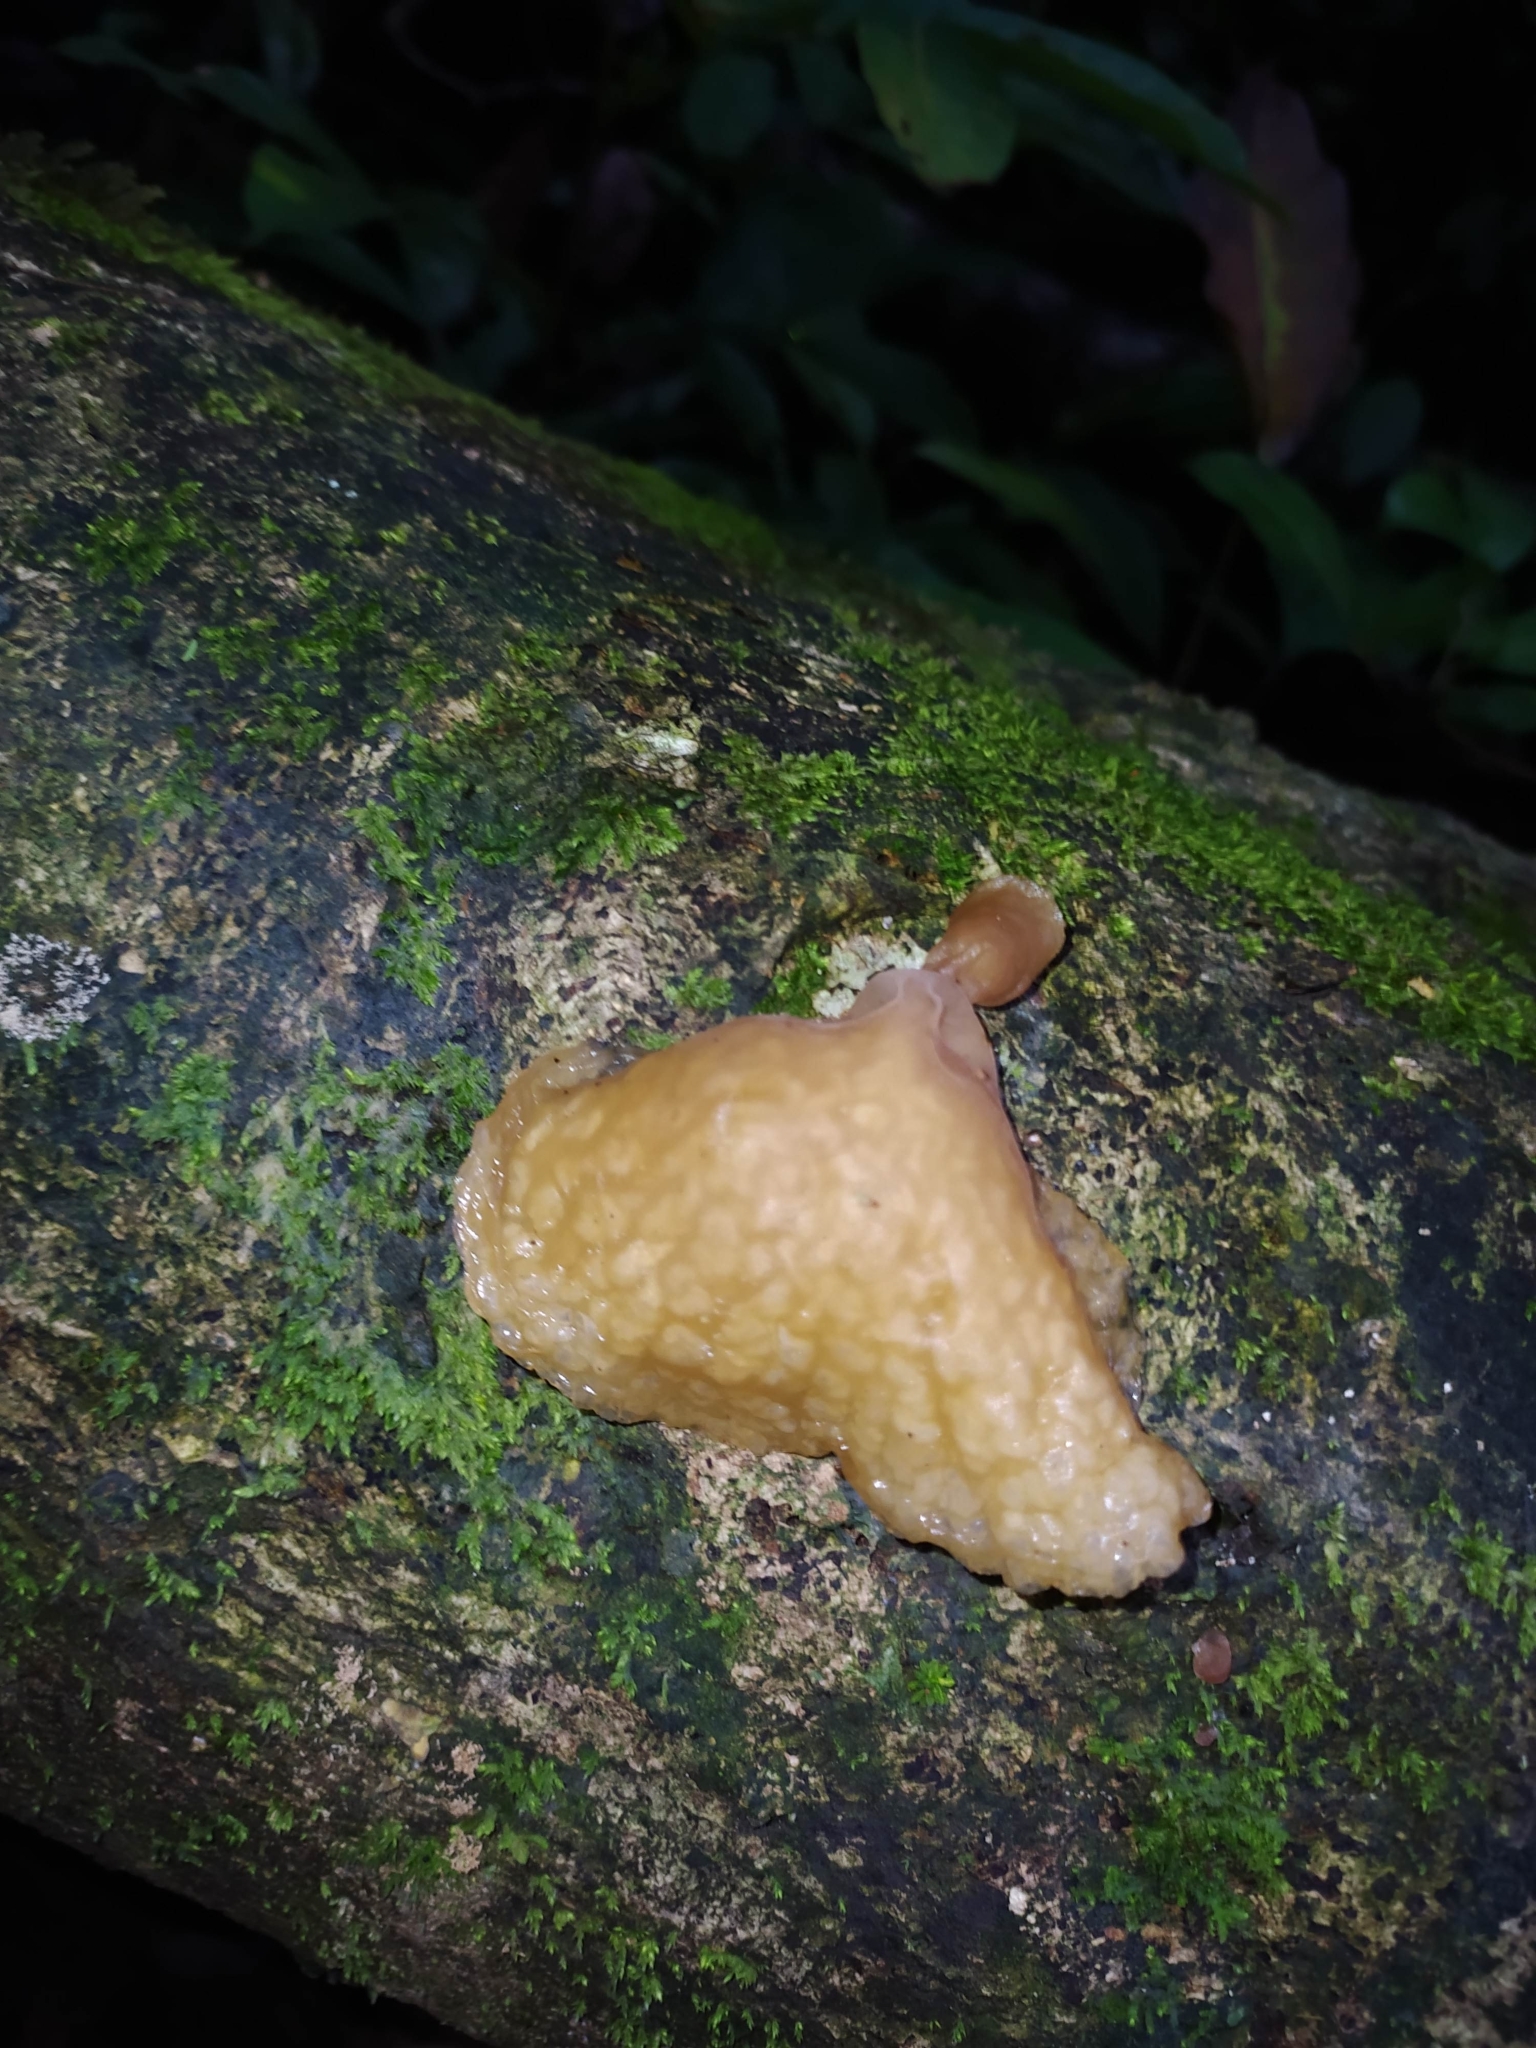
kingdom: Fungi
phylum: Basidiomycota
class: Agaricomycetes
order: Auriculariales
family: Auriculariaceae
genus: Auricularia
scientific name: Auricularia delicata
